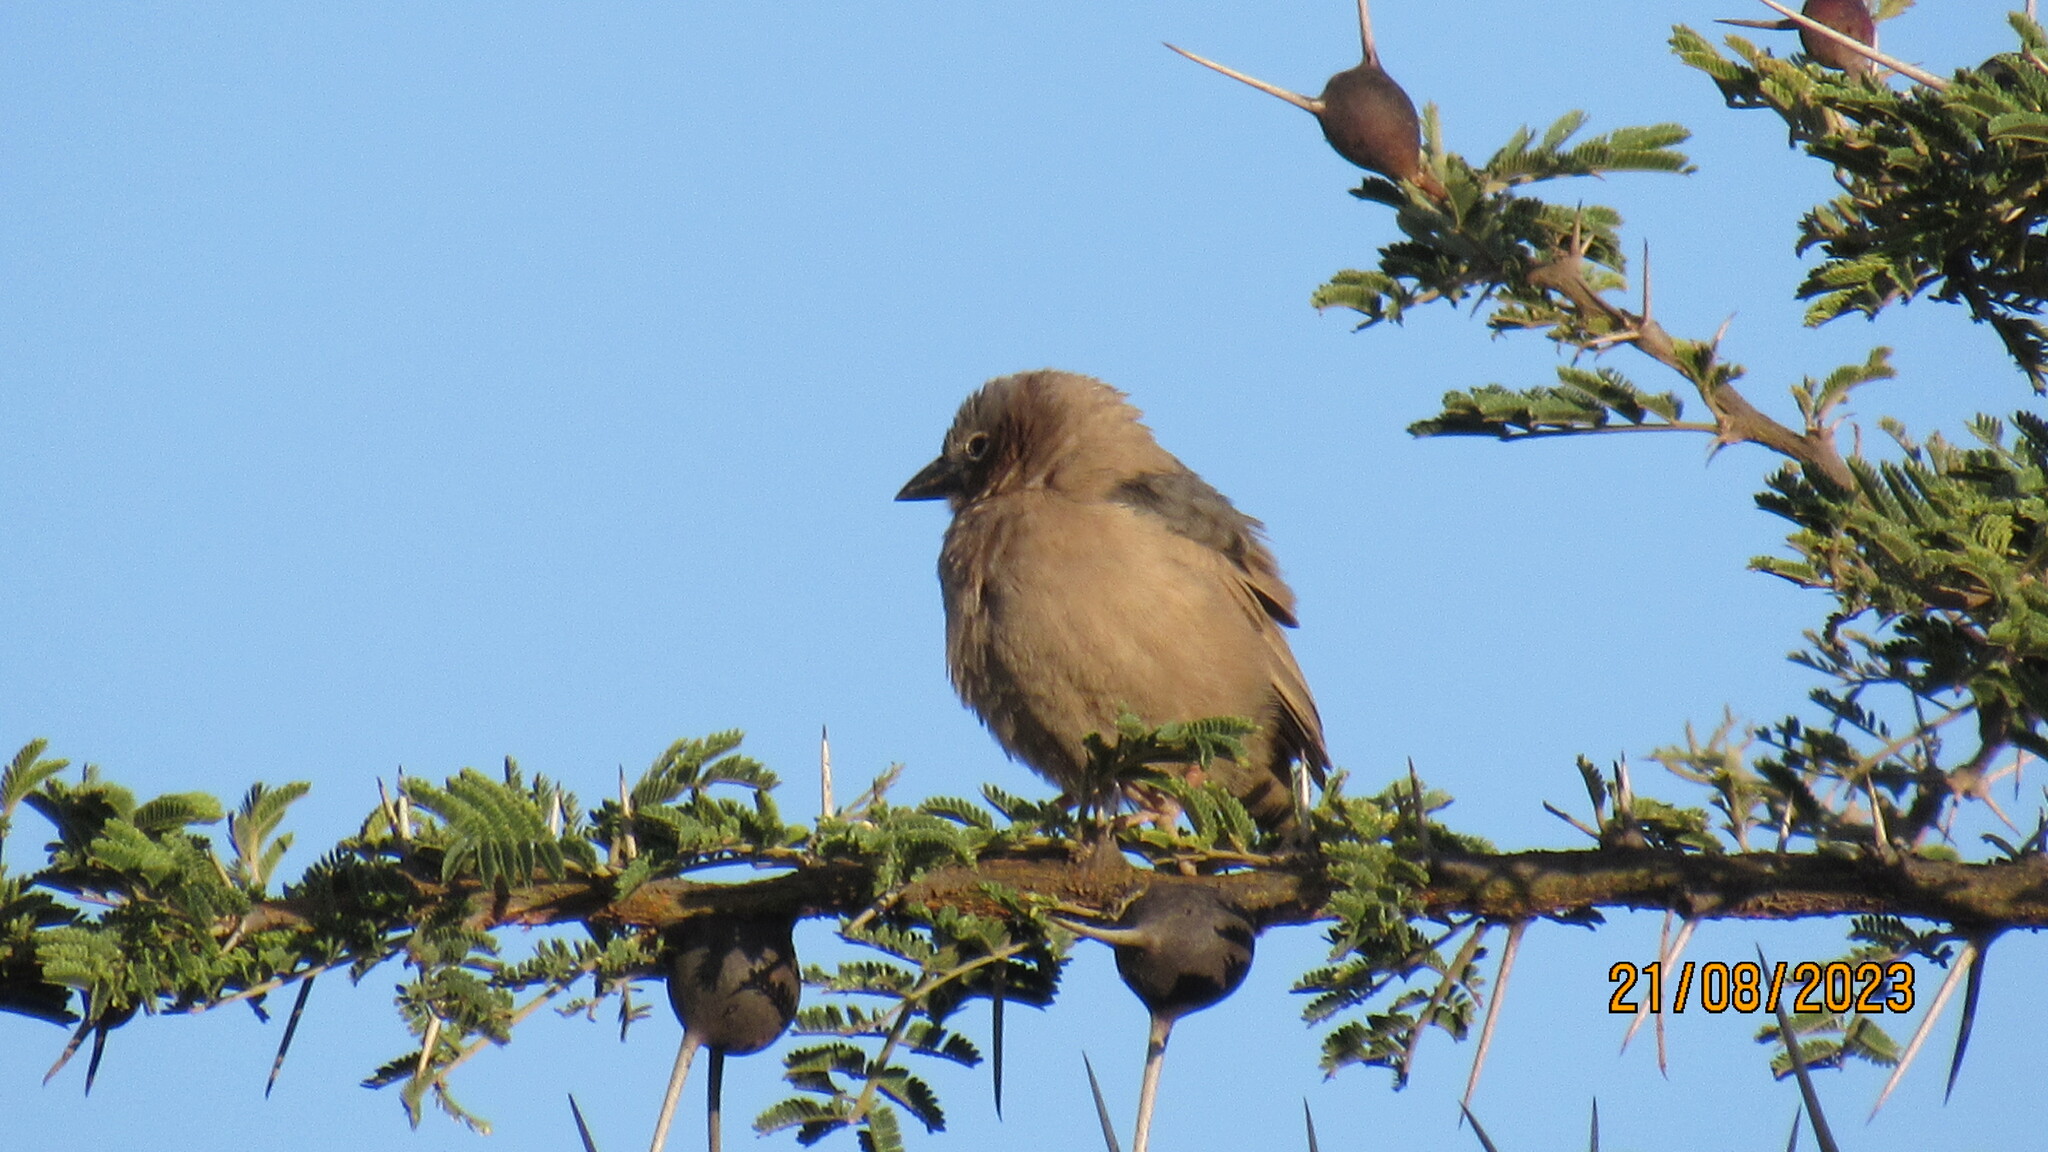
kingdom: Animalia
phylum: Chordata
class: Aves
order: Passeriformes
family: Passeridae
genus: Pseudonigrita
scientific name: Pseudonigrita arnaudi
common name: Grey-capped social weaver
